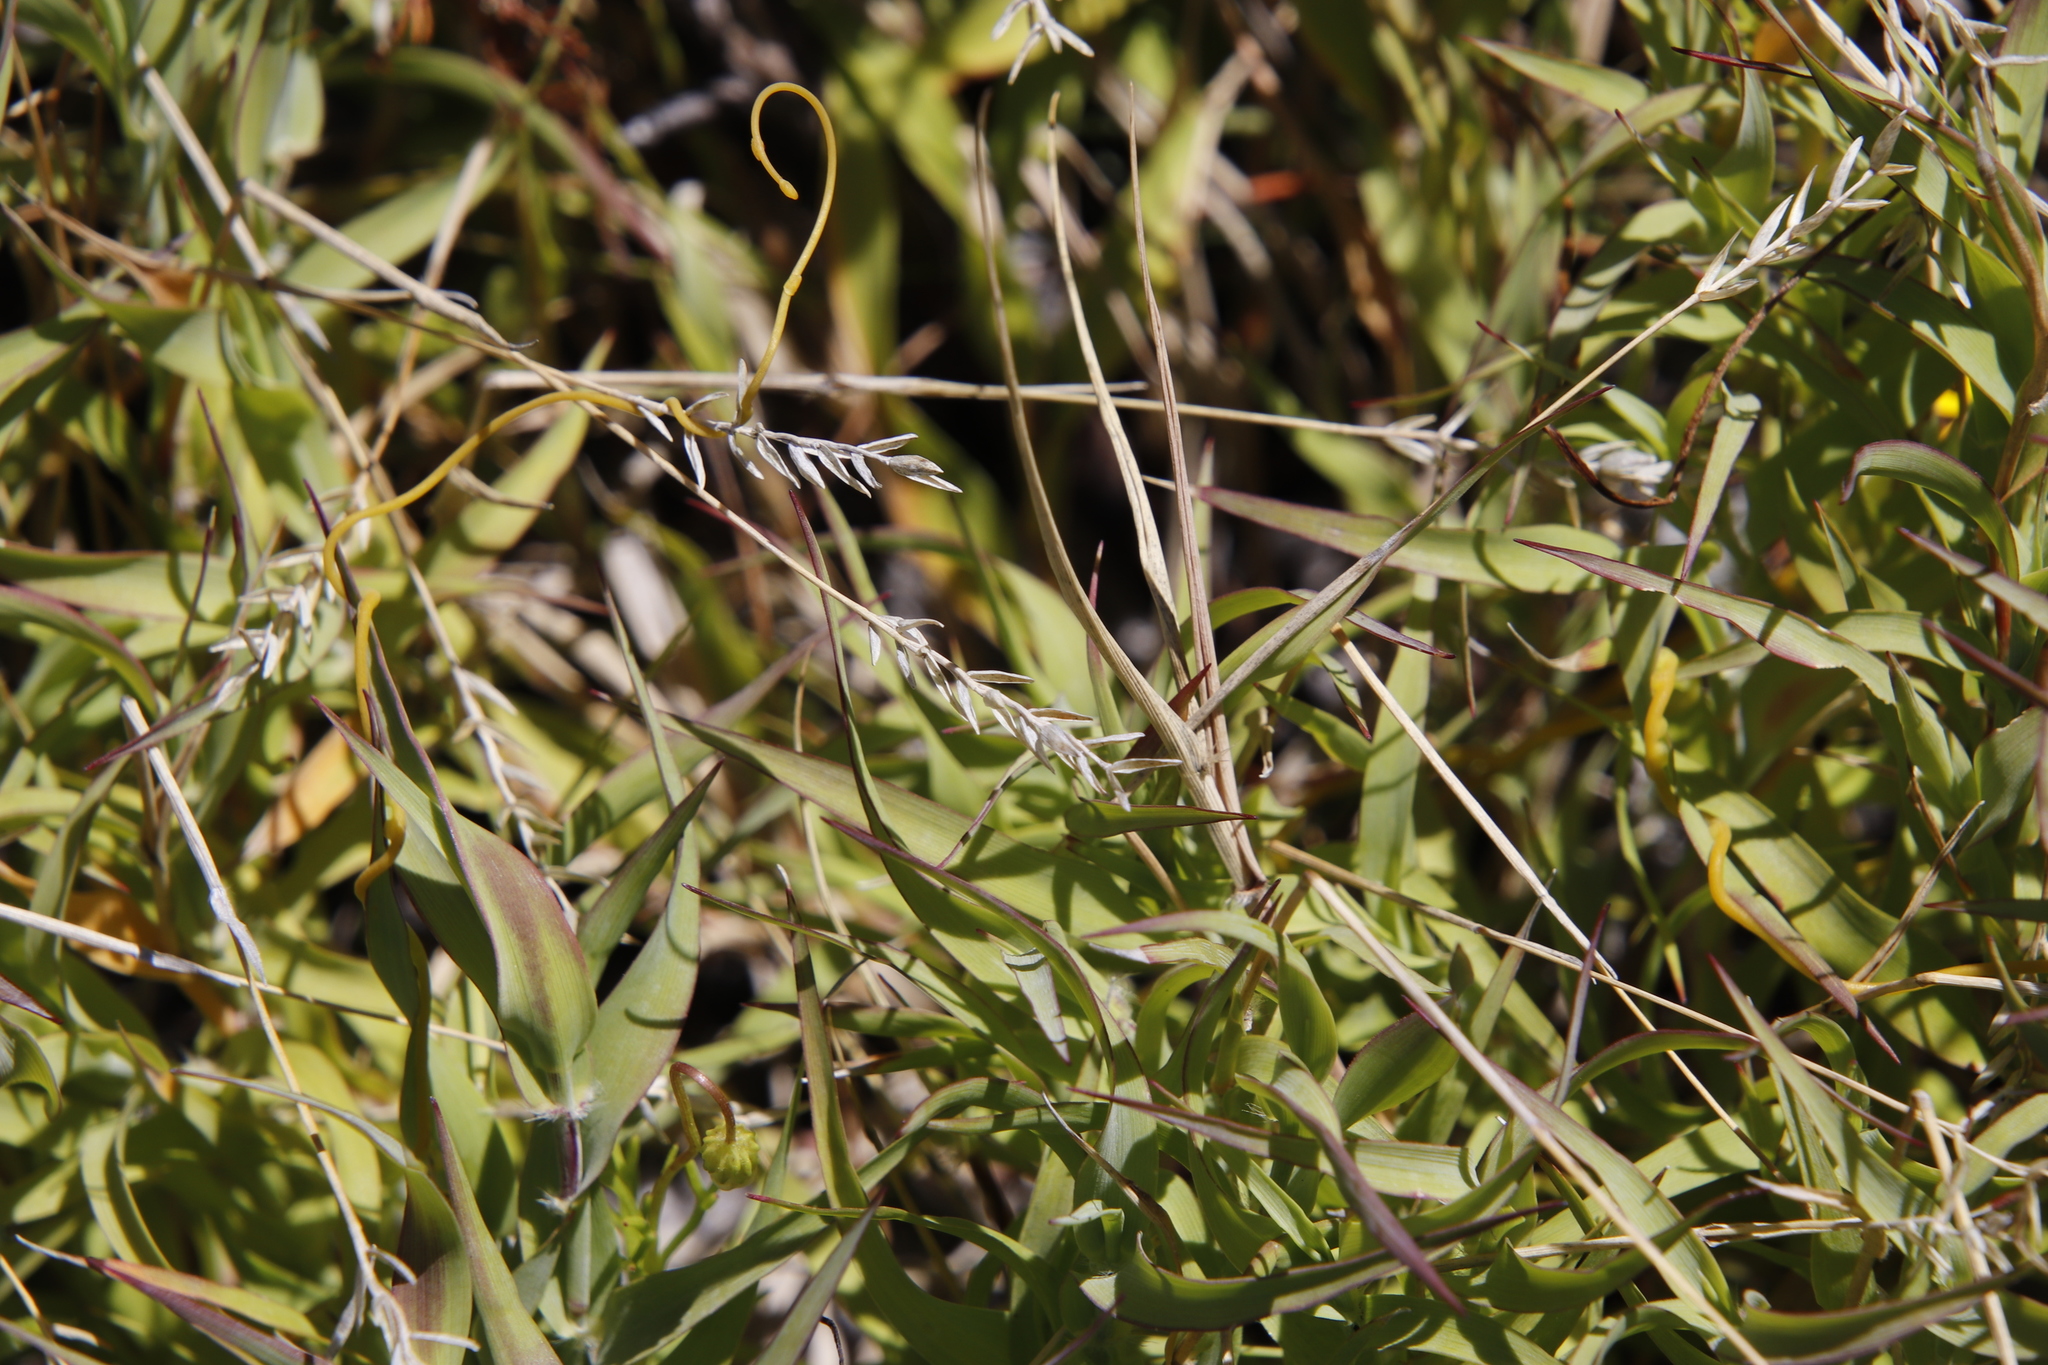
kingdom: Plantae
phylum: Tracheophyta
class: Liliopsida
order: Poales
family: Poaceae
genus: Pseudopentameris
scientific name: Pseudopentameris brachyphylla
